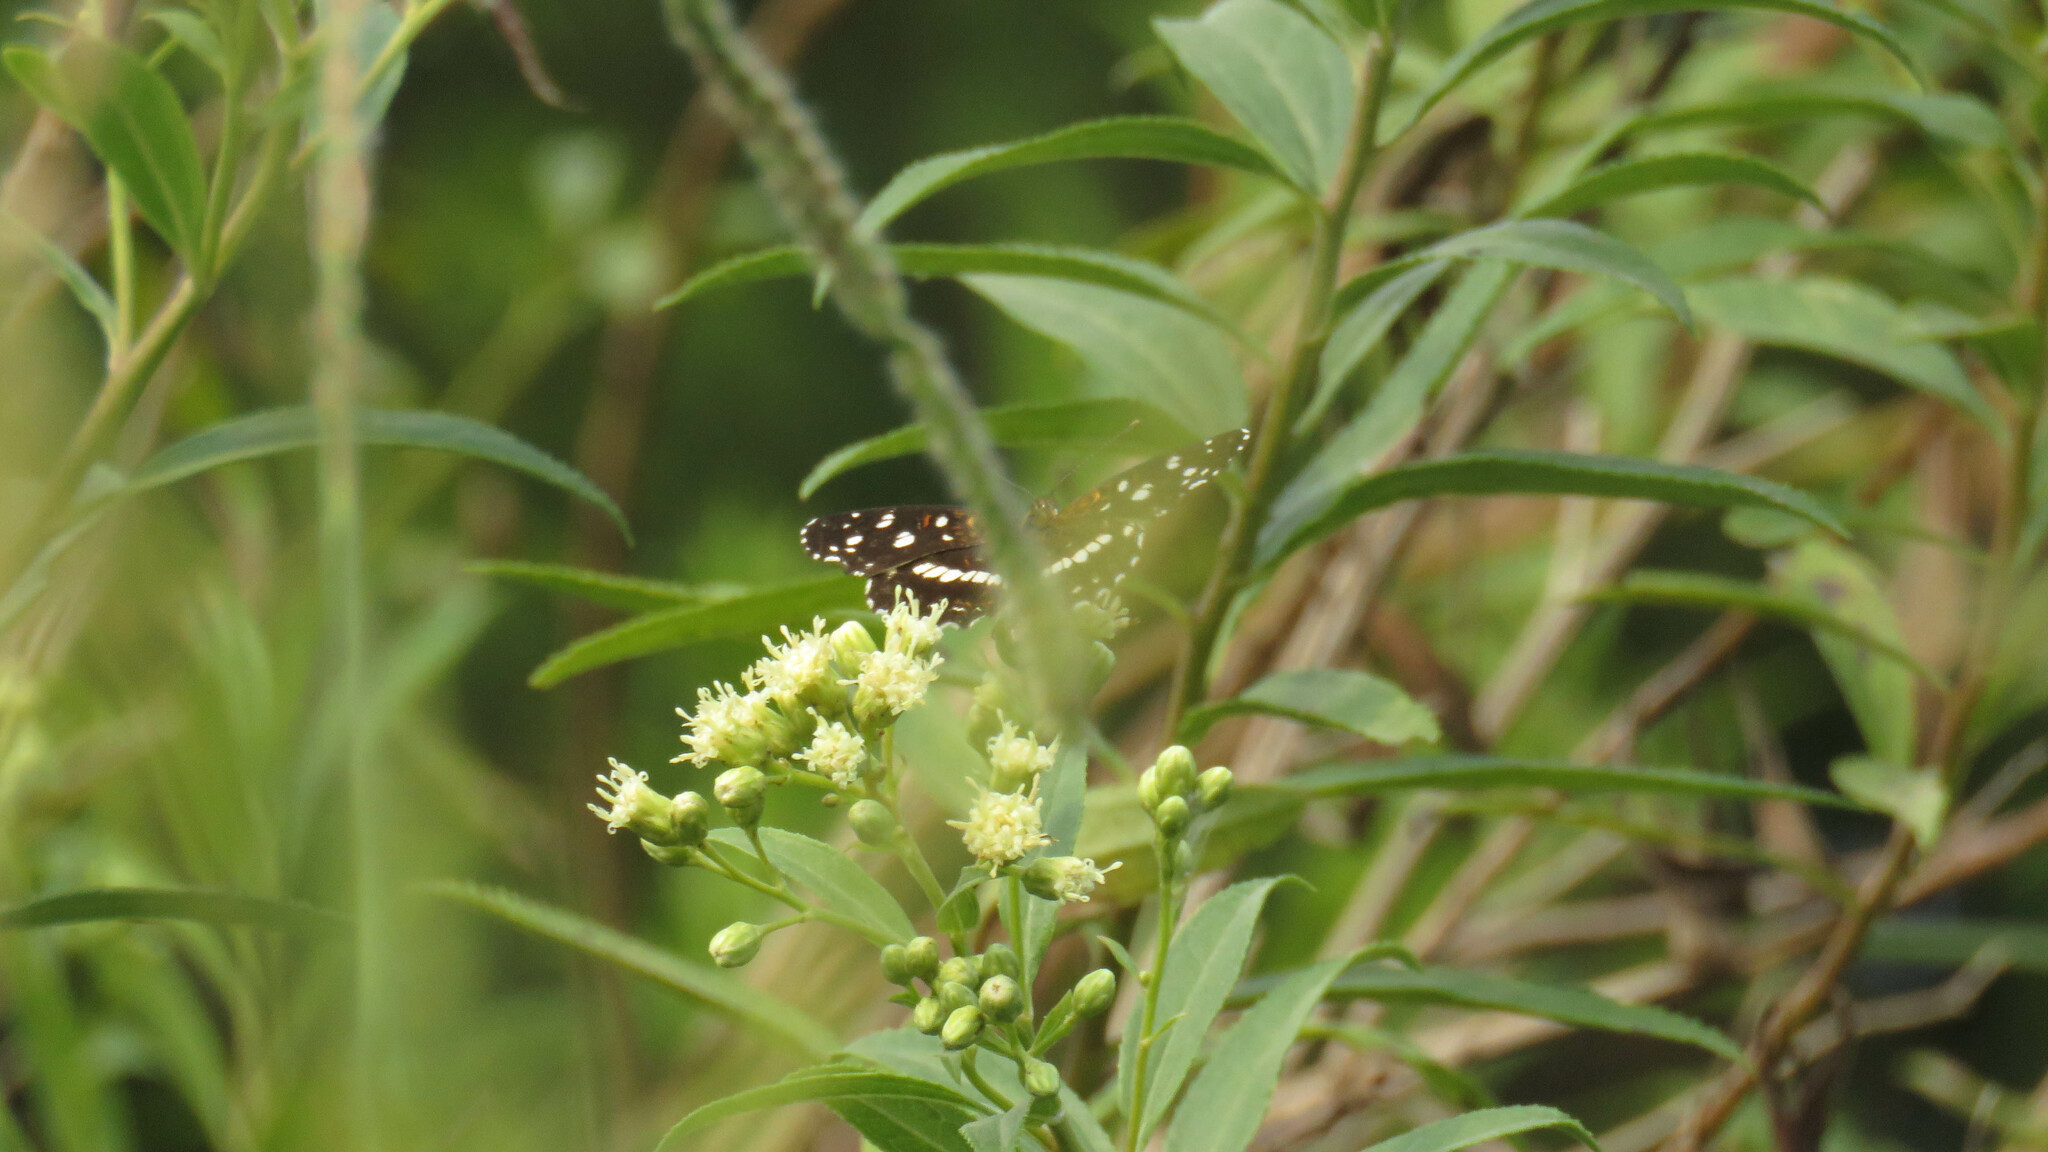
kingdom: Animalia
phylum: Arthropoda
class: Insecta
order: Lepidoptera
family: Nymphalidae
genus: Ortilia
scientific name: Ortilia ithra
